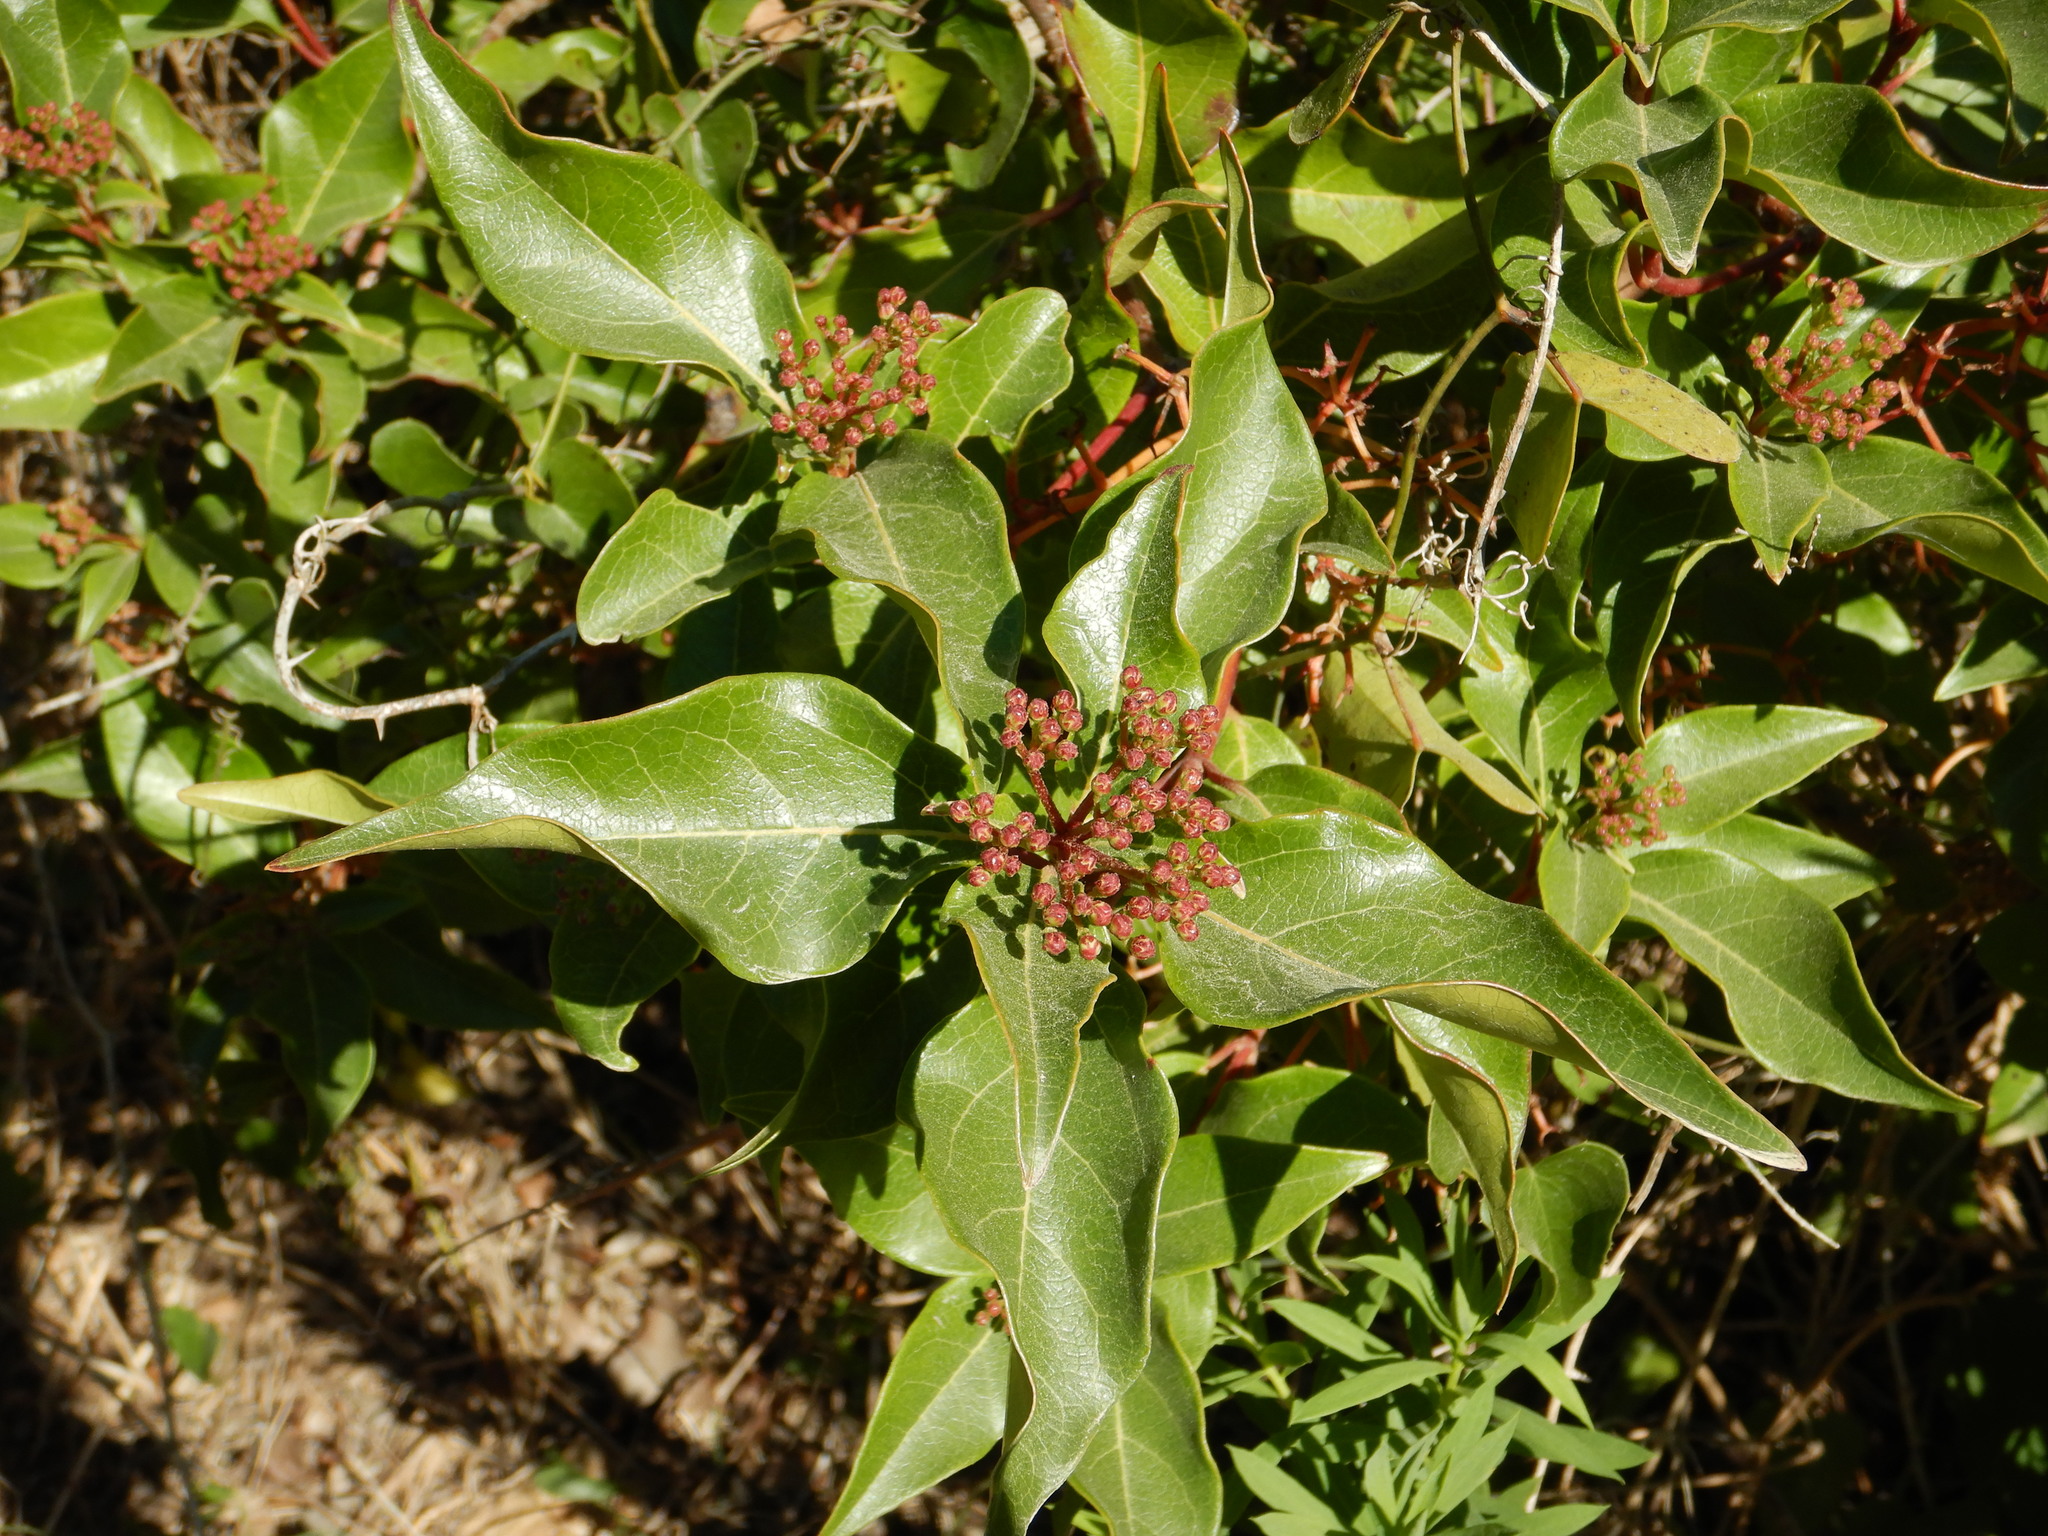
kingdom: Plantae
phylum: Tracheophyta
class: Magnoliopsida
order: Dipsacales
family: Viburnaceae
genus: Viburnum
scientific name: Viburnum tinus
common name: Laurustinus
